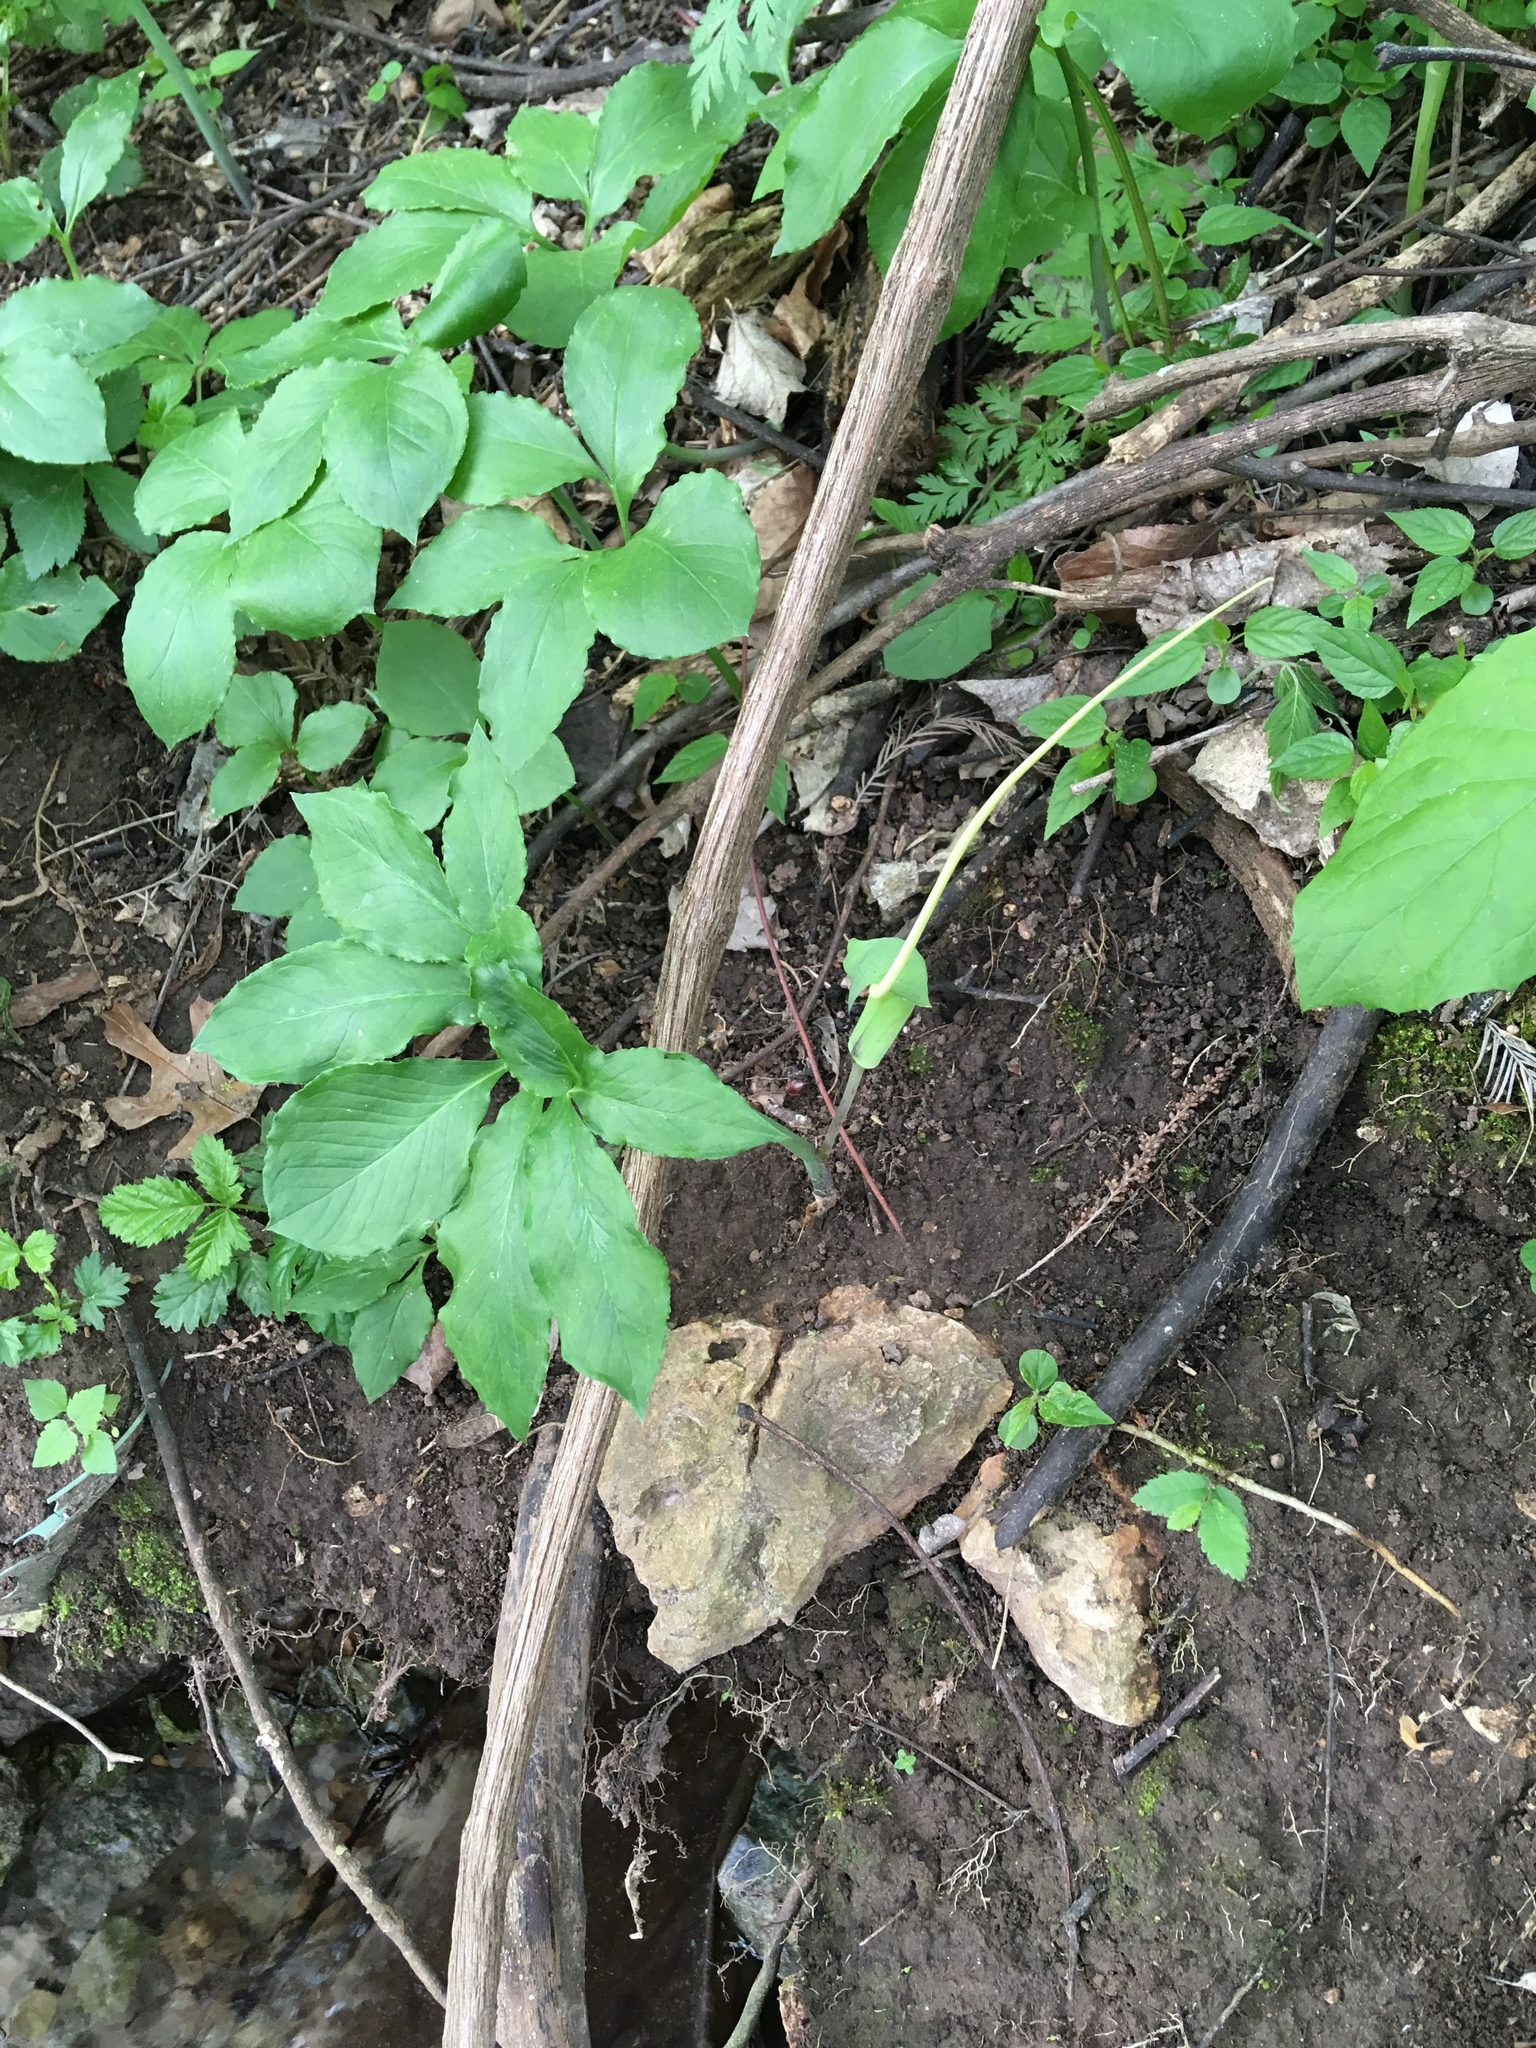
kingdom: Plantae
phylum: Tracheophyta
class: Liliopsida
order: Alismatales
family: Araceae
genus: Arisaema
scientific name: Arisaema dracontium
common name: Dragon-arum
